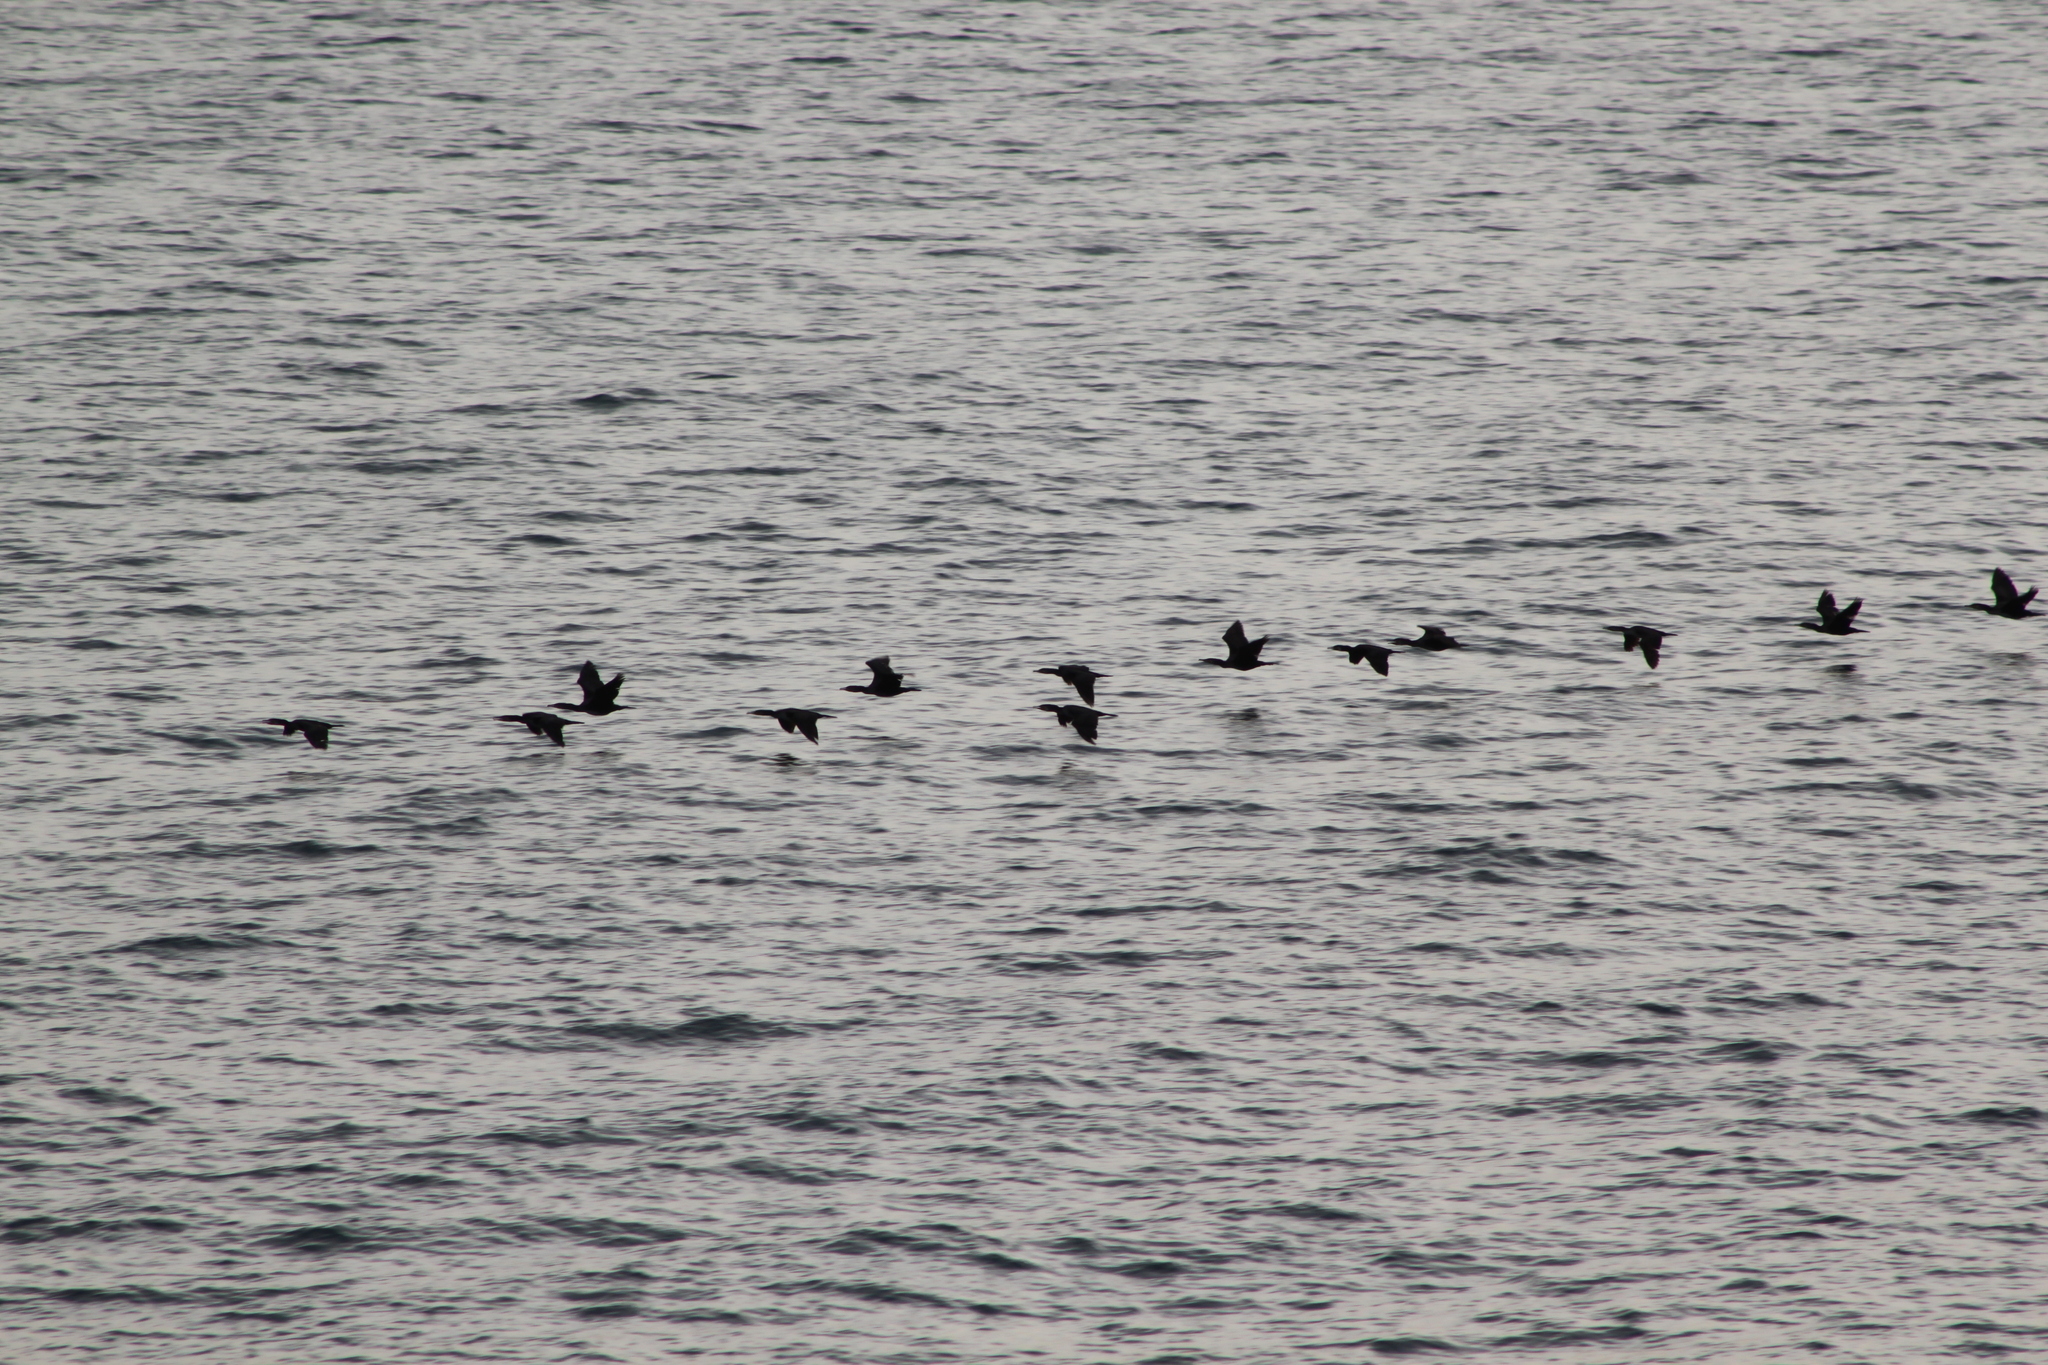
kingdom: Animalia
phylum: Chordata
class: Aves
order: Suliformes
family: Phalacrocoracidae
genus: Phalacrocorax
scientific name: Phalacrocorax carbo
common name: Great cormorant
